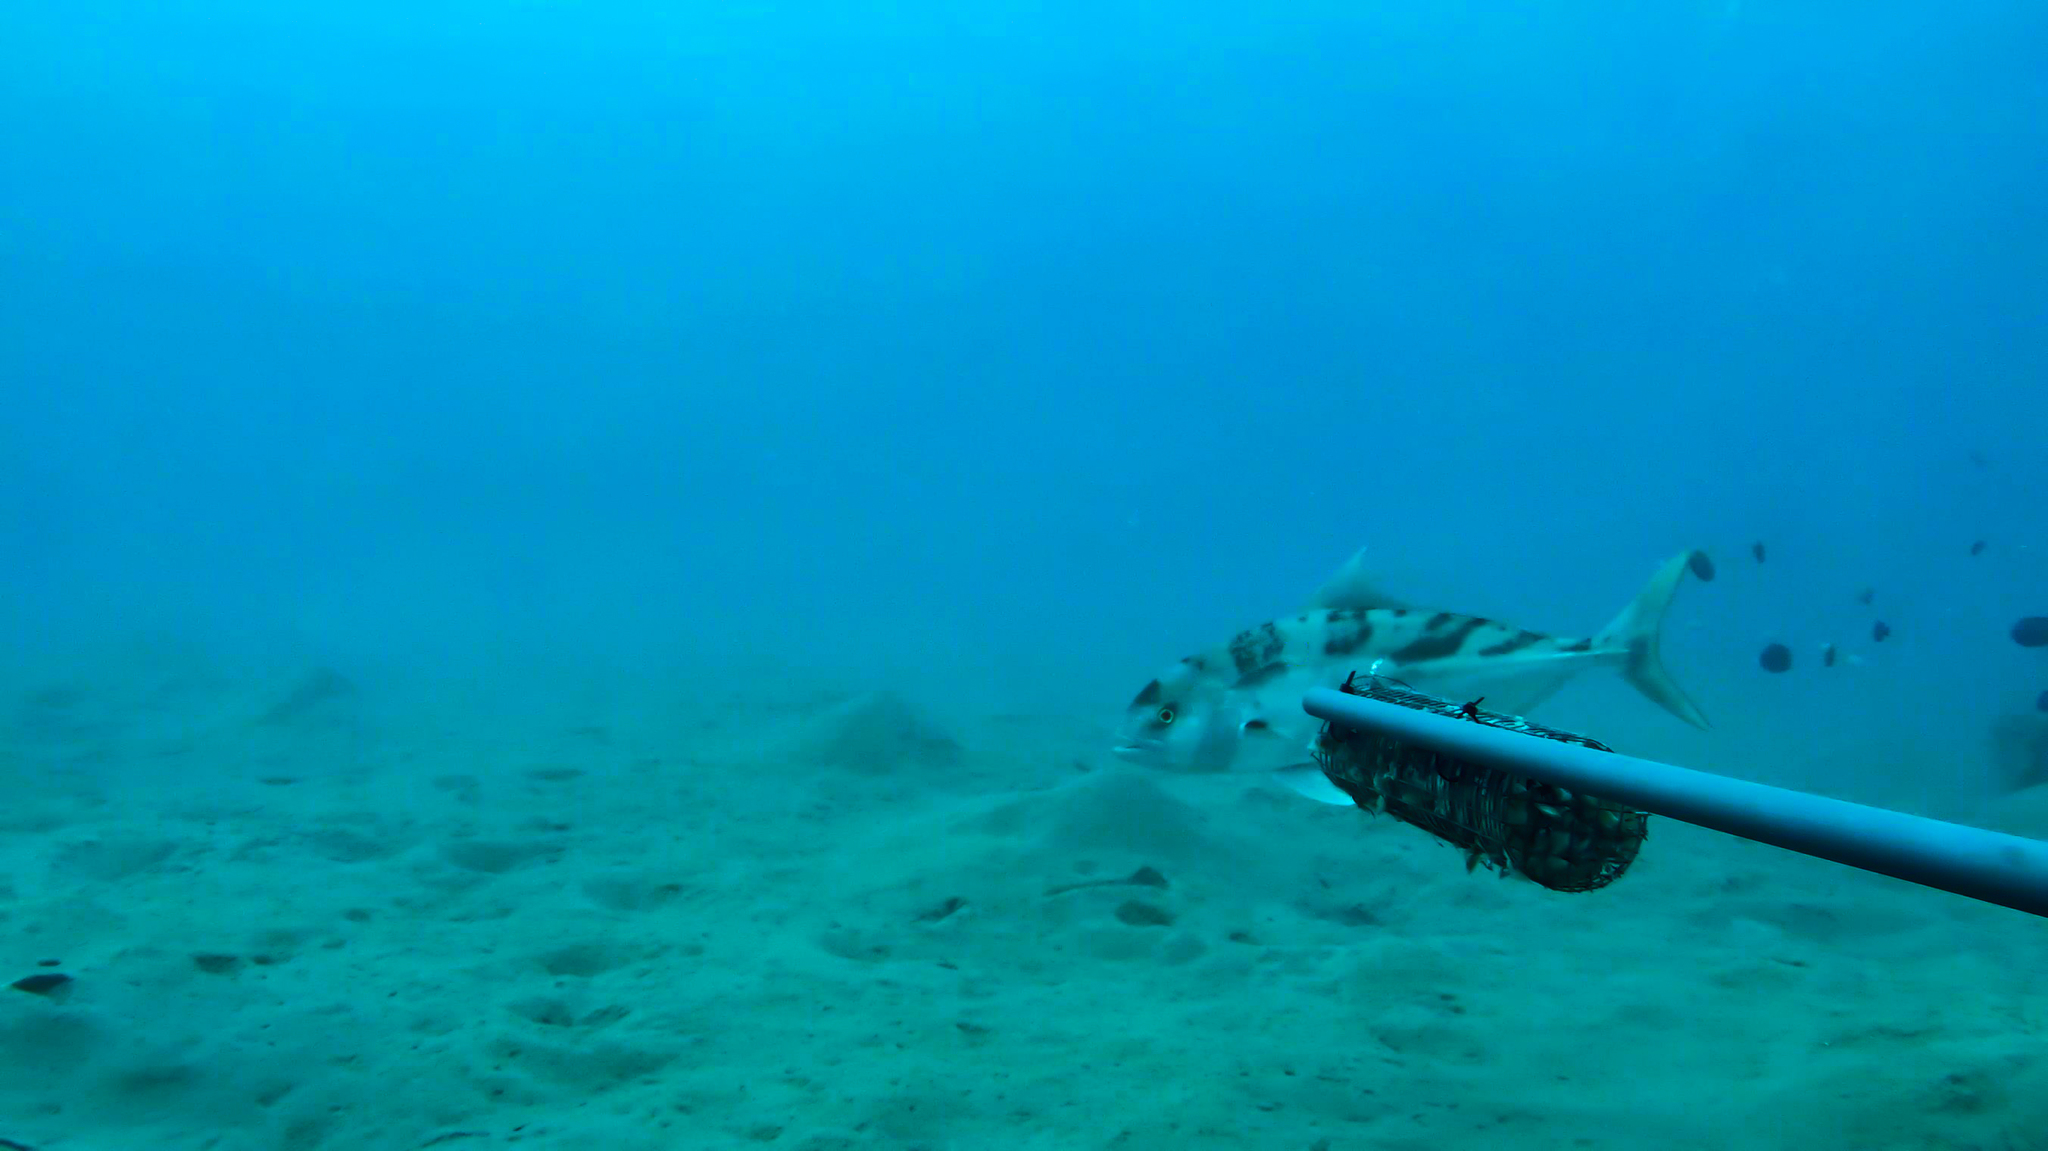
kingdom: Animalia
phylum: Chordata
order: Perciformes
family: Carangidae
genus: Seriolina
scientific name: Seriolina nigrofasciata
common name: Blackbanded trevally
